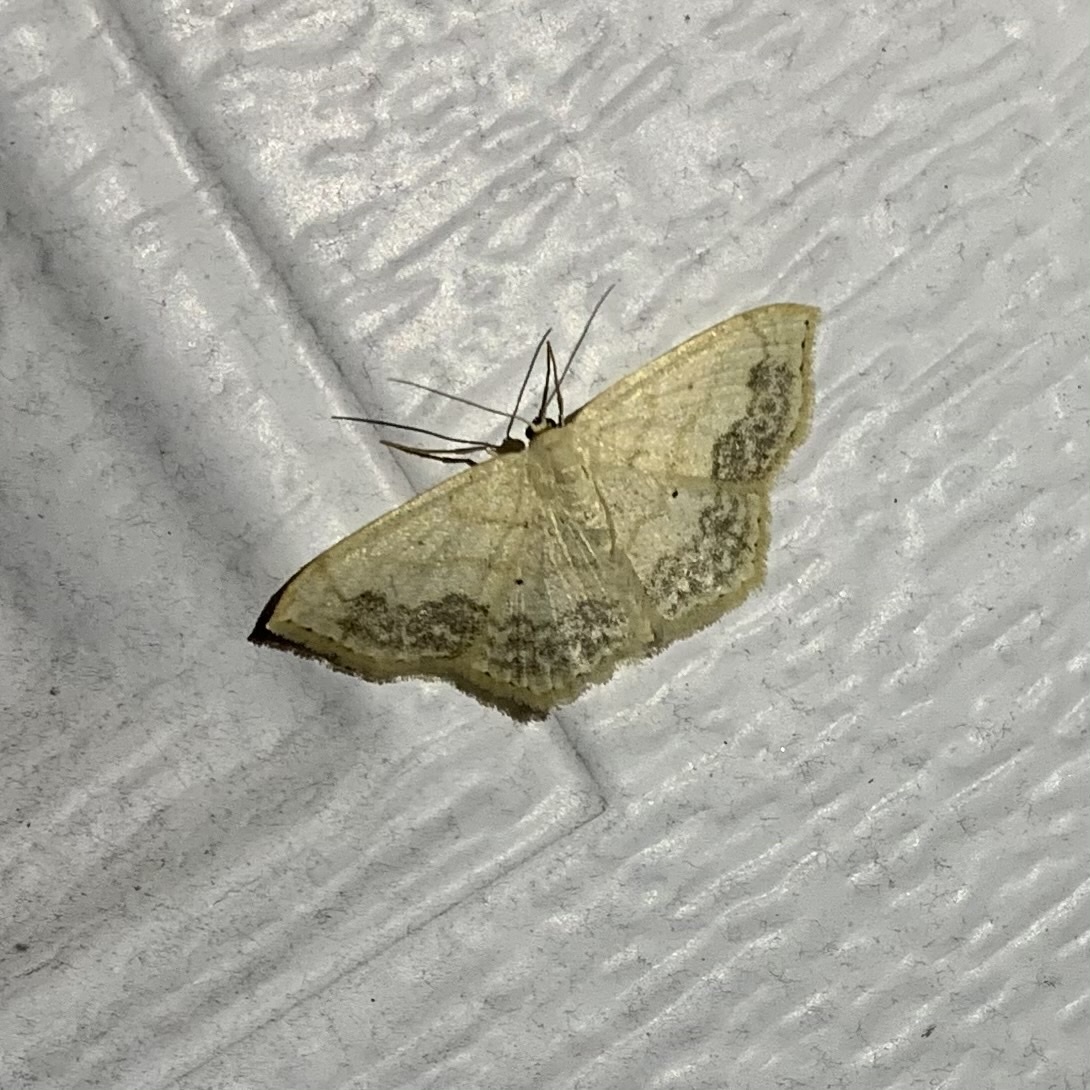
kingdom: Animalia
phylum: Arthropoda
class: Insecta
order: Lepidoptera
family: Geometridae
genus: Scopula
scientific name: Scopula limboundata
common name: Large lace border
